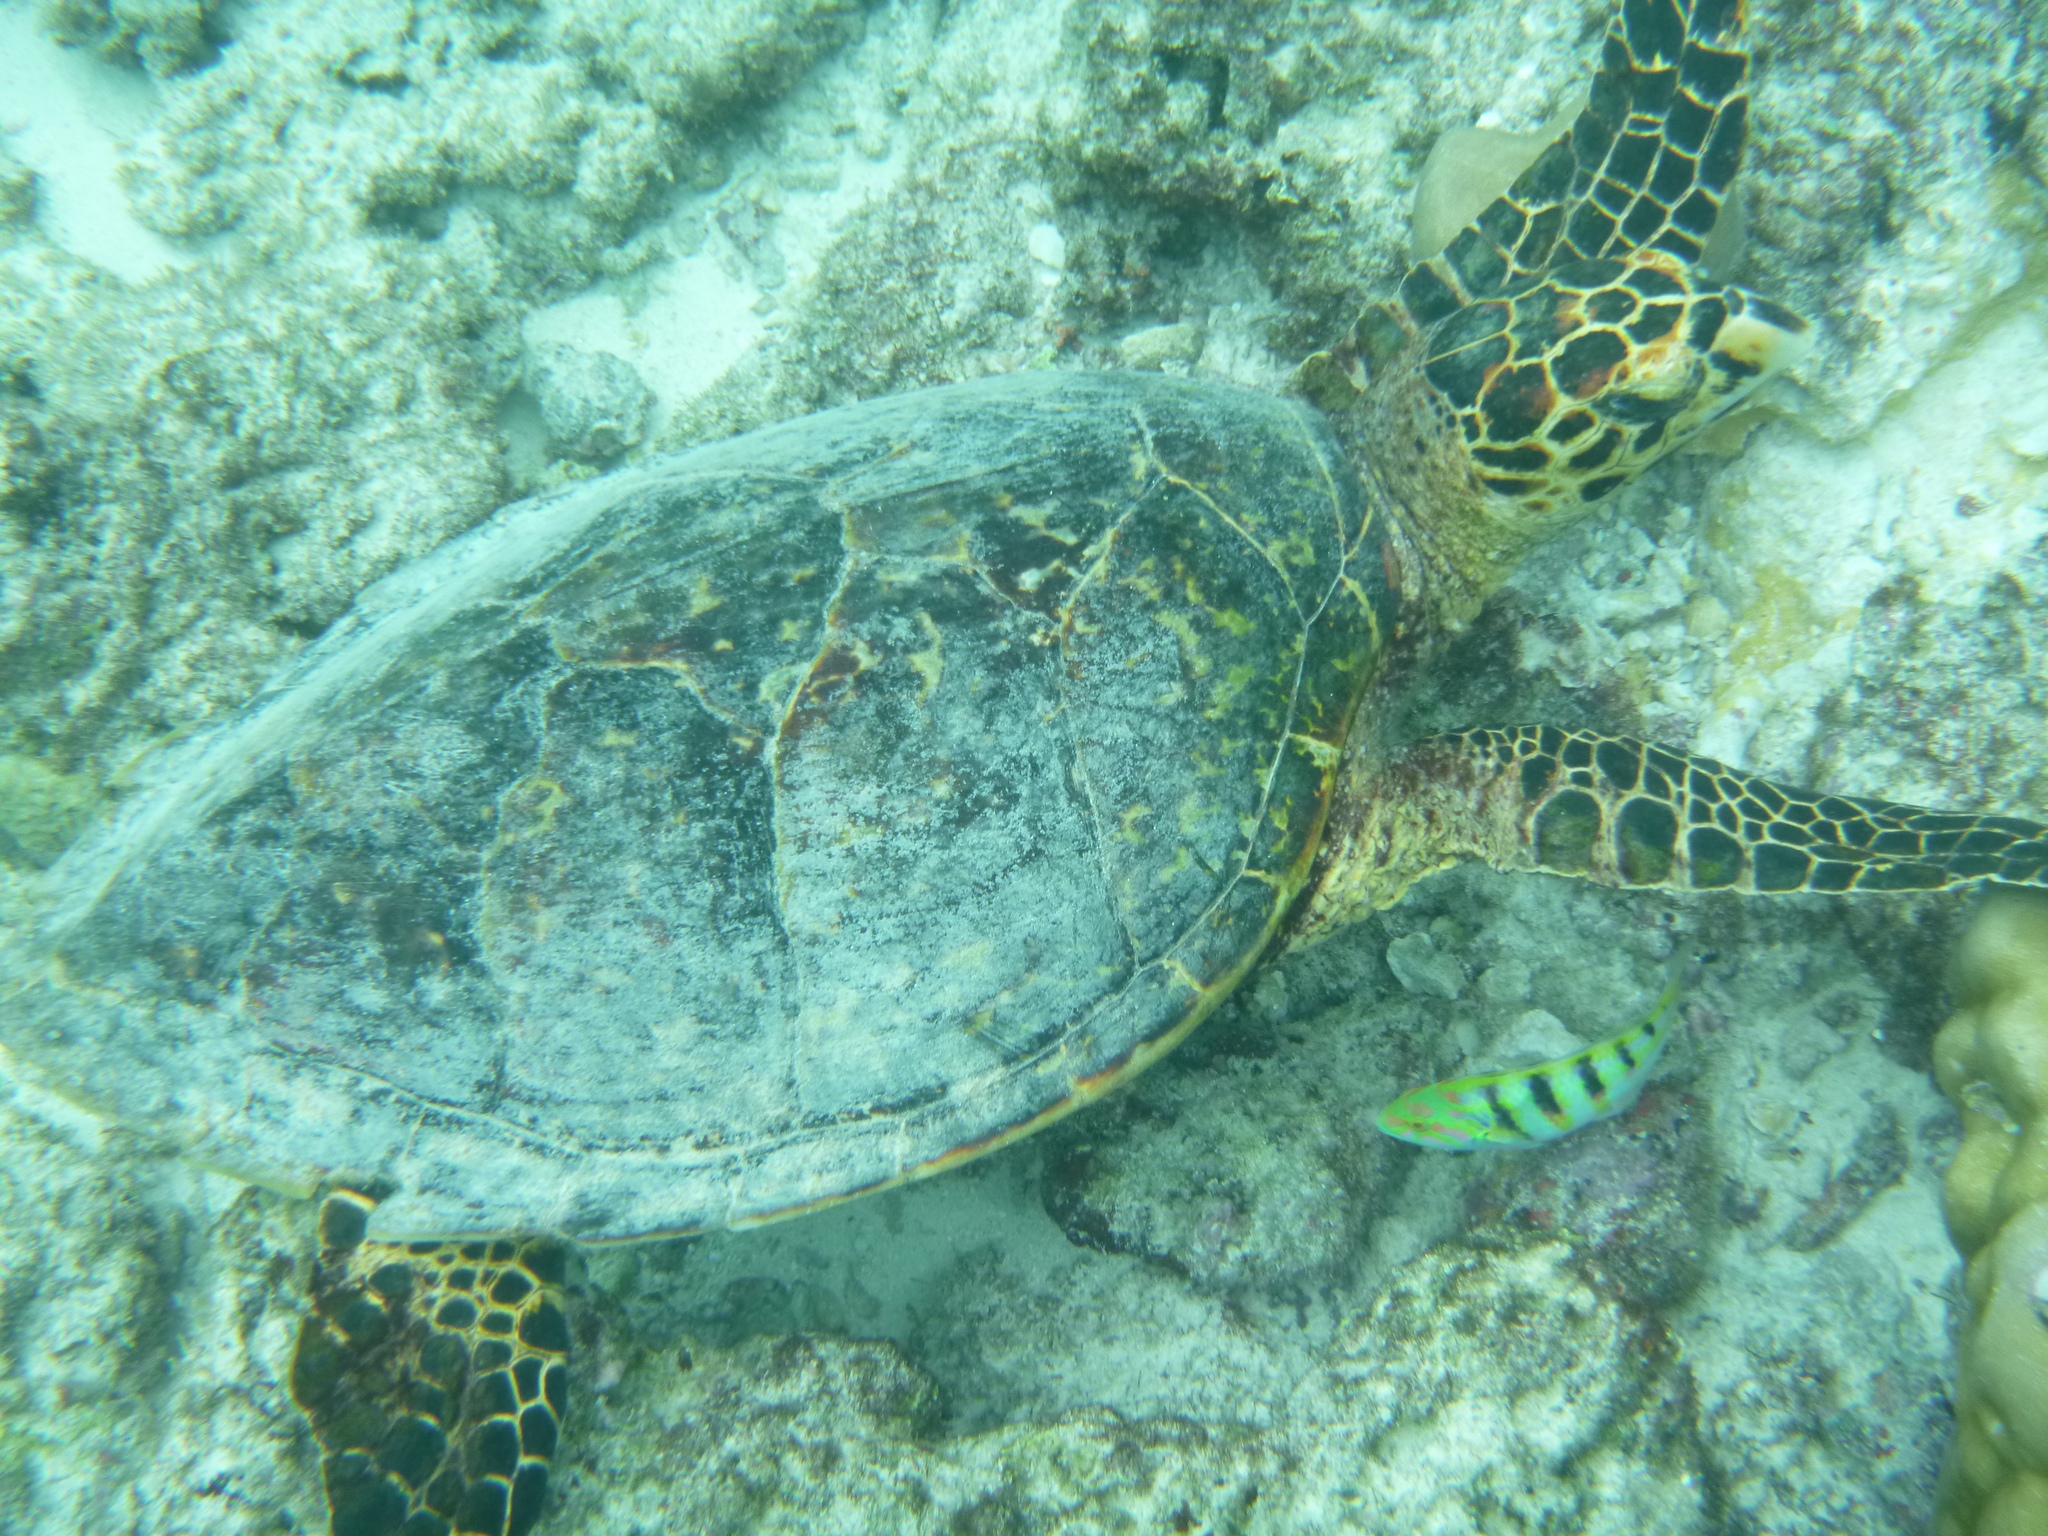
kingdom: Animalia
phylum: Chordata
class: Testudines
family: Cheloniidae
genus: Eretmochelys
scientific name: Eretmochelys imbricata
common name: Hawksbill turtle
